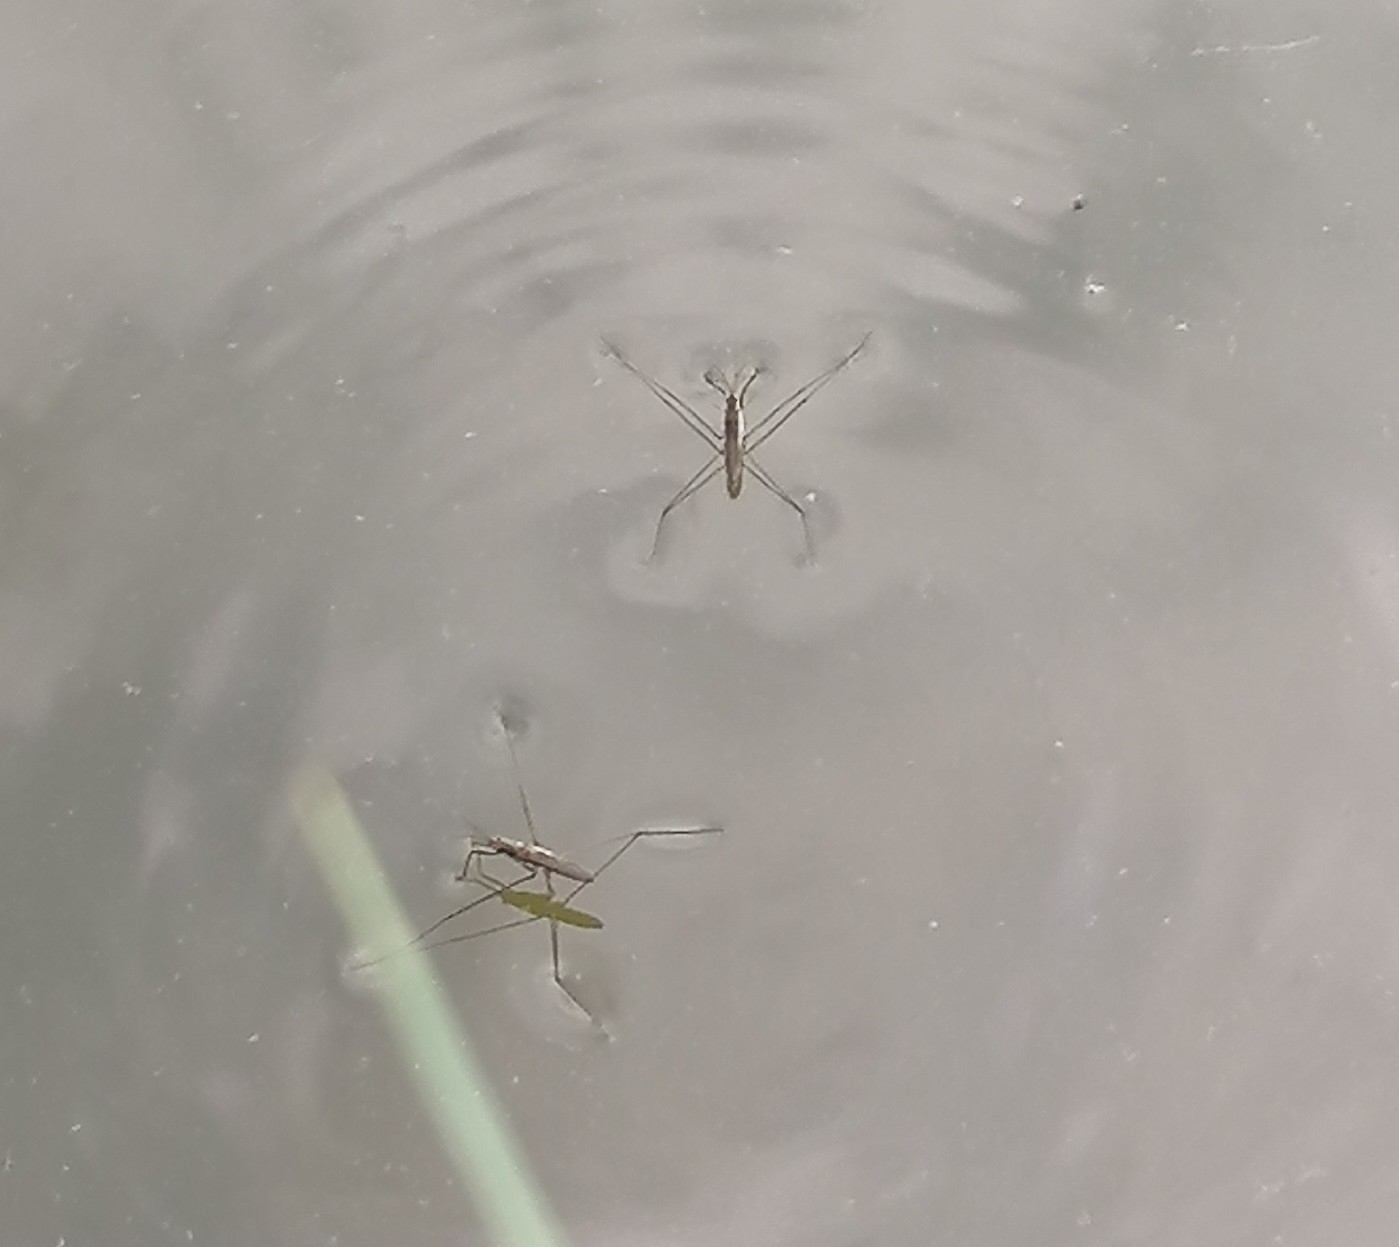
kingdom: Animalia
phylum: Arthropoda
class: Insecta
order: Hemiptera
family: Gerridae
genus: Aquarius
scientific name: Aquarius paludum
